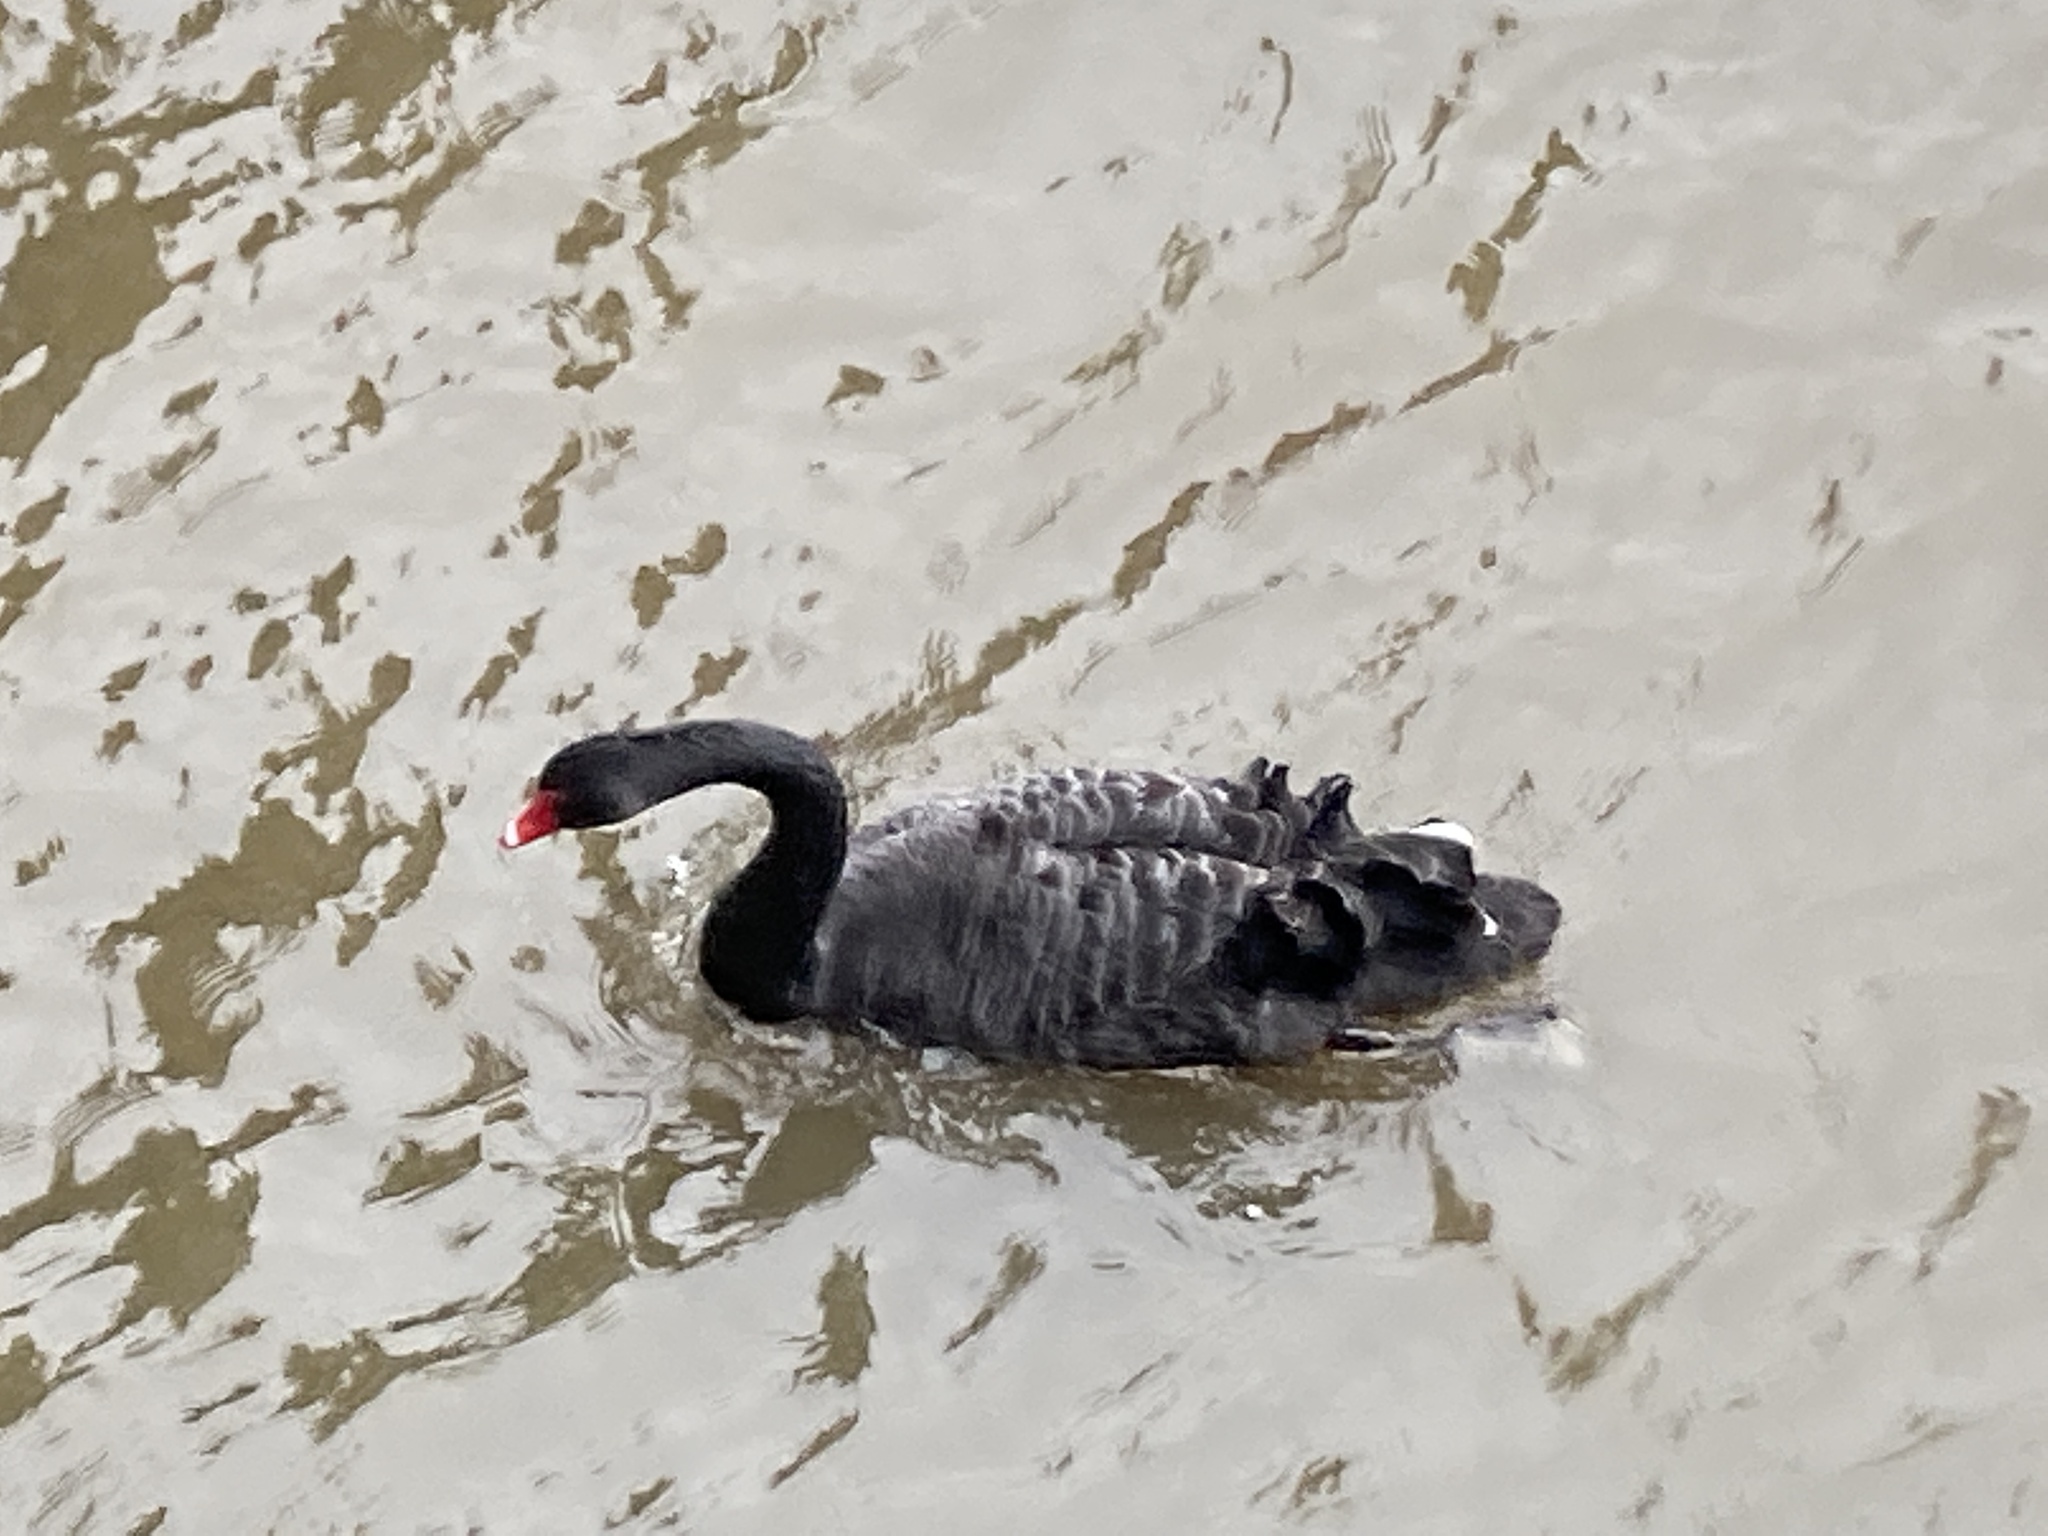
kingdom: Animalia
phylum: Chordata
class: Aves
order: Anseriformes
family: Anatidae
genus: Cygnus
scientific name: Cygnus atratus
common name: Black swan
